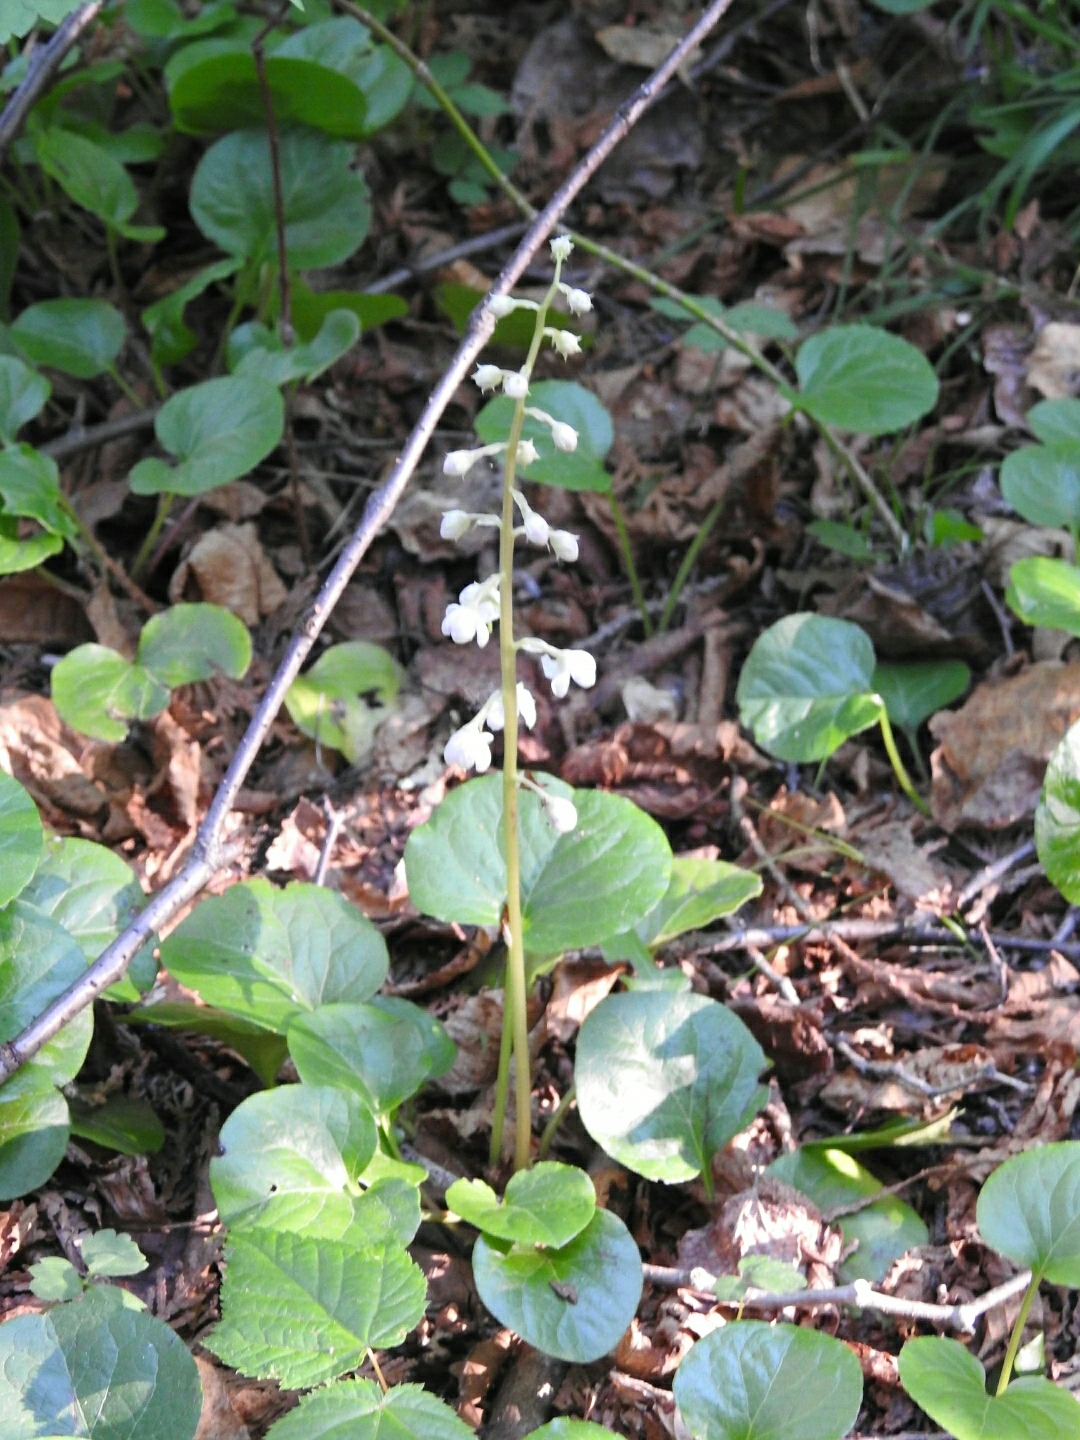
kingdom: Plantae
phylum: Tracheophyta
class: Magnoliopsida
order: Ericales
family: Ericaceae
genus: Pyrola
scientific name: Pyrola asarifolia
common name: Bog wintergreen
